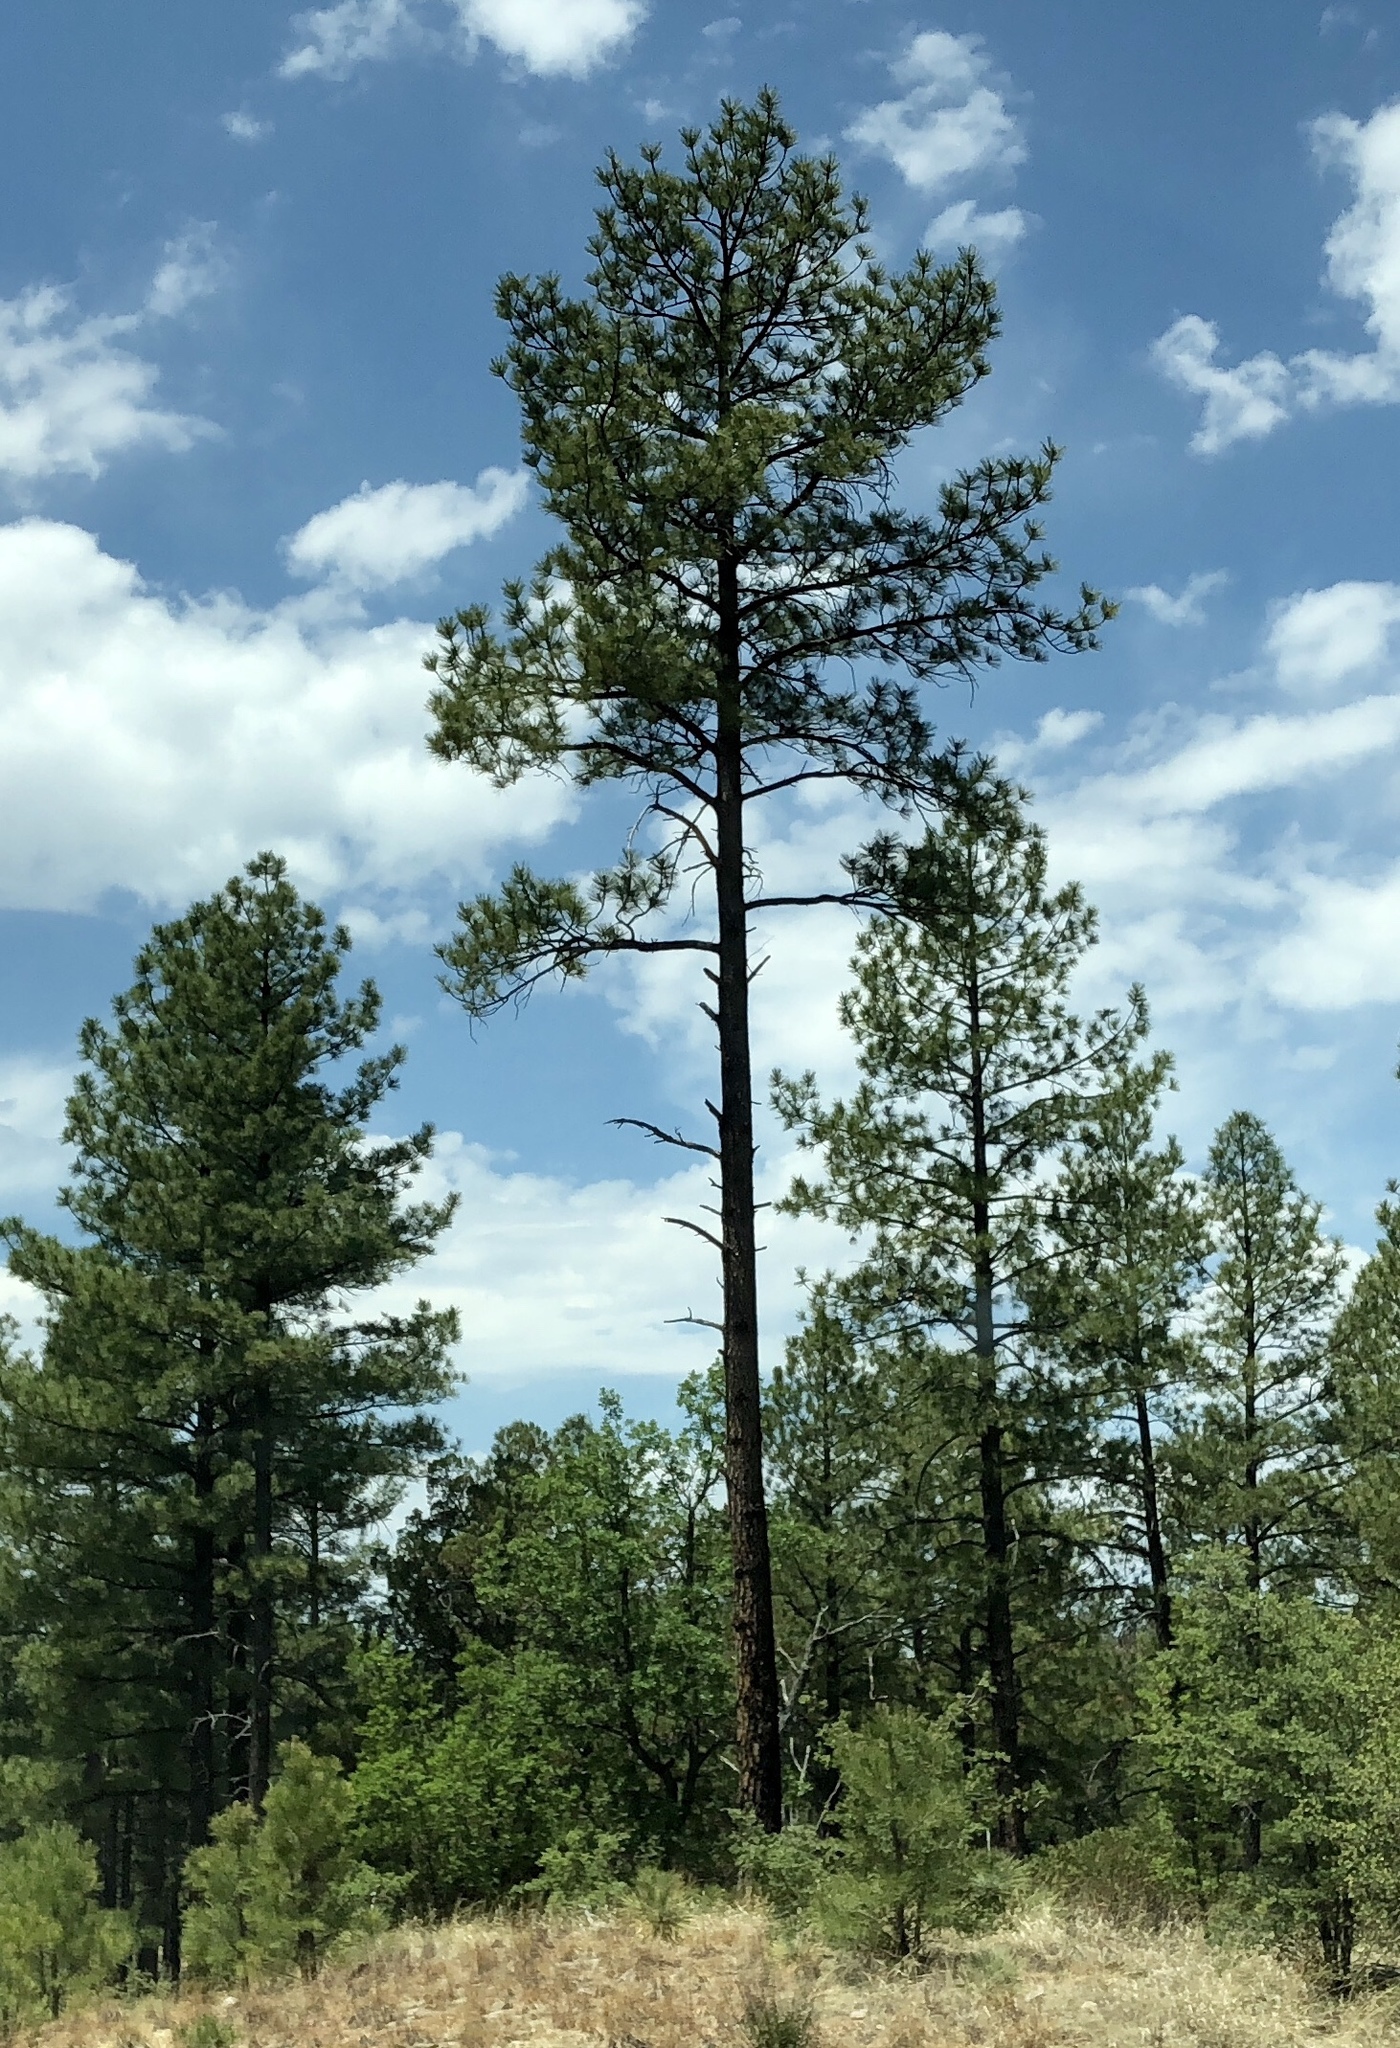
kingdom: Plantae
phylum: Tracheophyta
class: Pinopsida
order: Pinales
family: Pinaceae
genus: Pinus
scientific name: Pinus ponderosa
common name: Western yellow-pine
